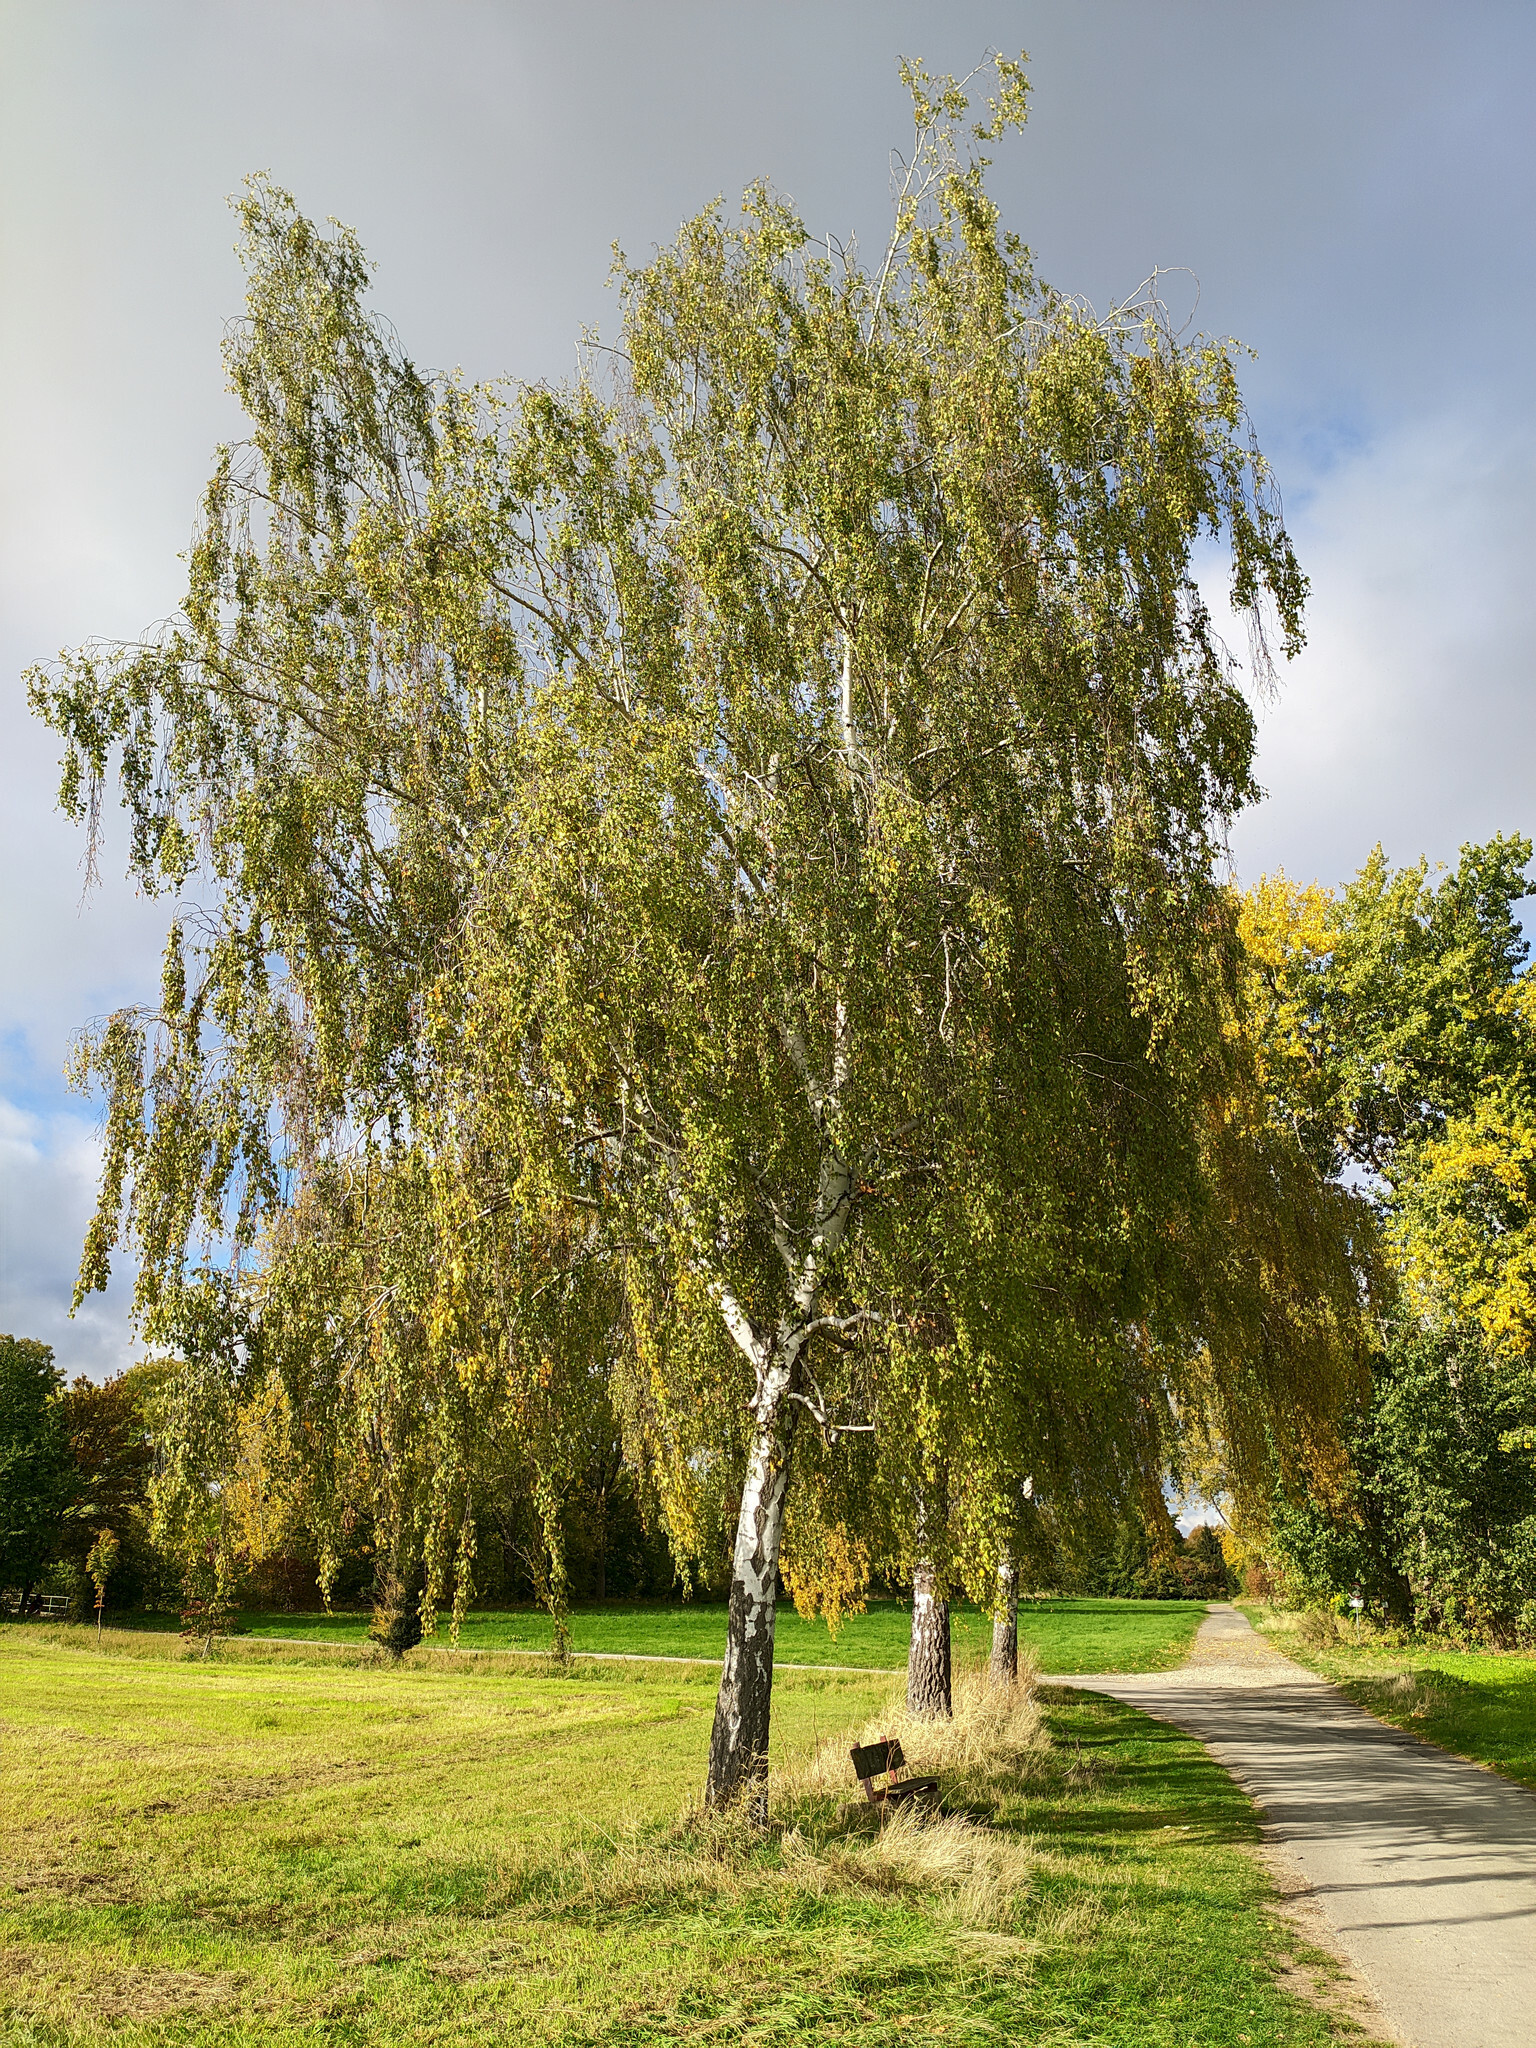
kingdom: Plantae
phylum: Tracheophyta
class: Magnoliopsida
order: Fagales
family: Betulaceae
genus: Betula
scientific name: Betula pendula
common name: Silver birch
